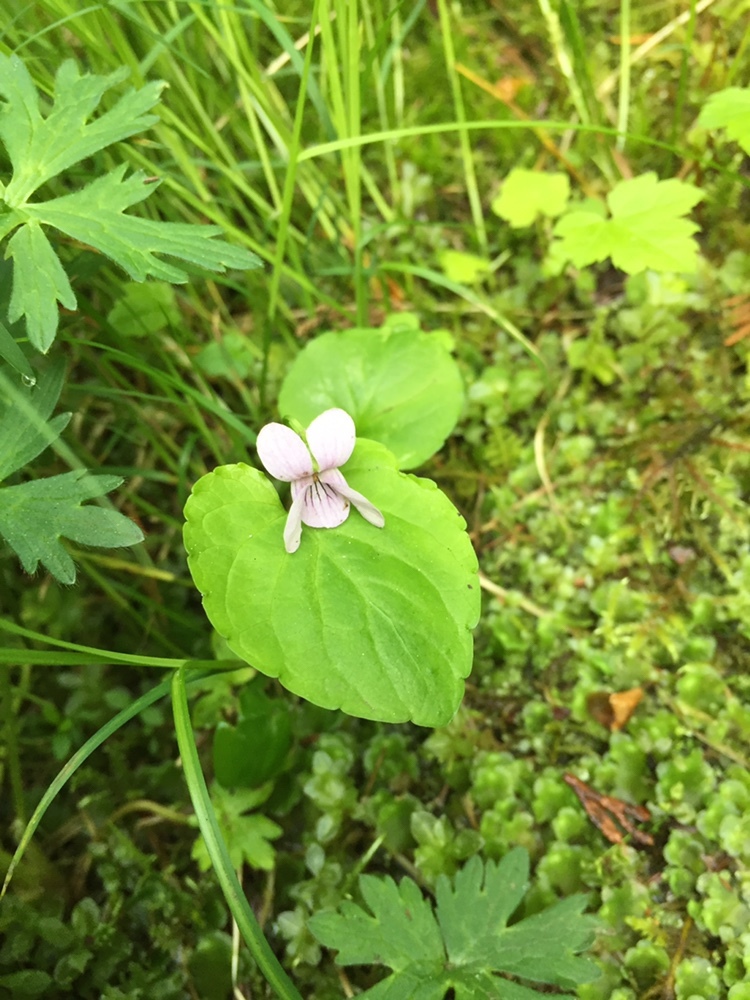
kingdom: Plantae
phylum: Tracheophyta
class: Magnoliopsida
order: Malpighiales
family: Violaceae
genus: Viola
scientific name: Viola palustris
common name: Marsh violet
